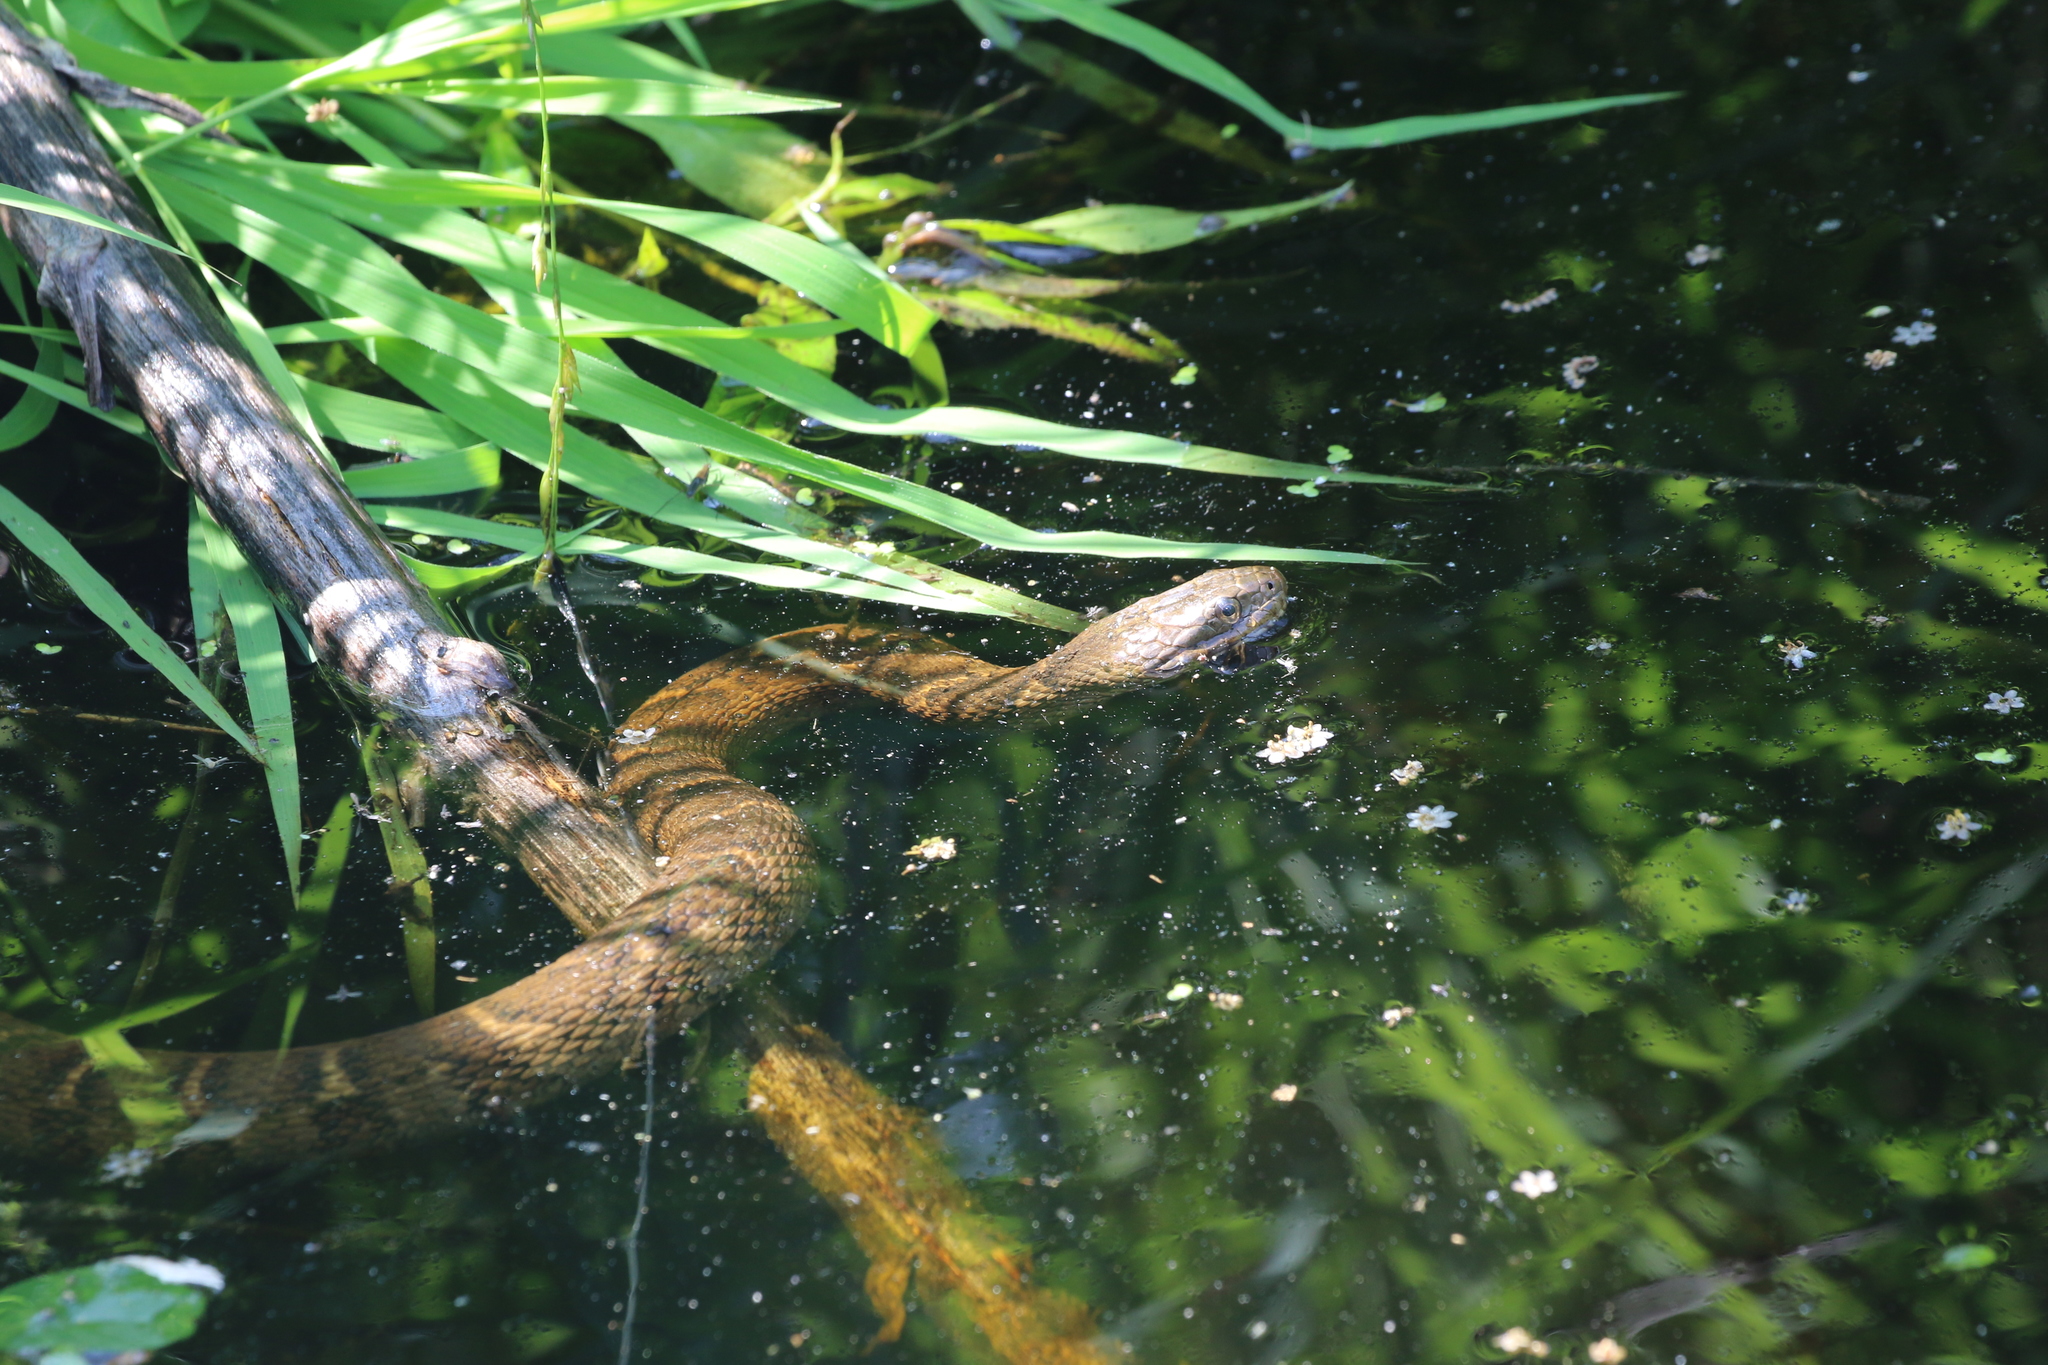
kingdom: Animalia
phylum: Chordata
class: Squamata
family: Colubridae
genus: Nerodia
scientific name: Nerodia sipedon
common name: Northern water snake
